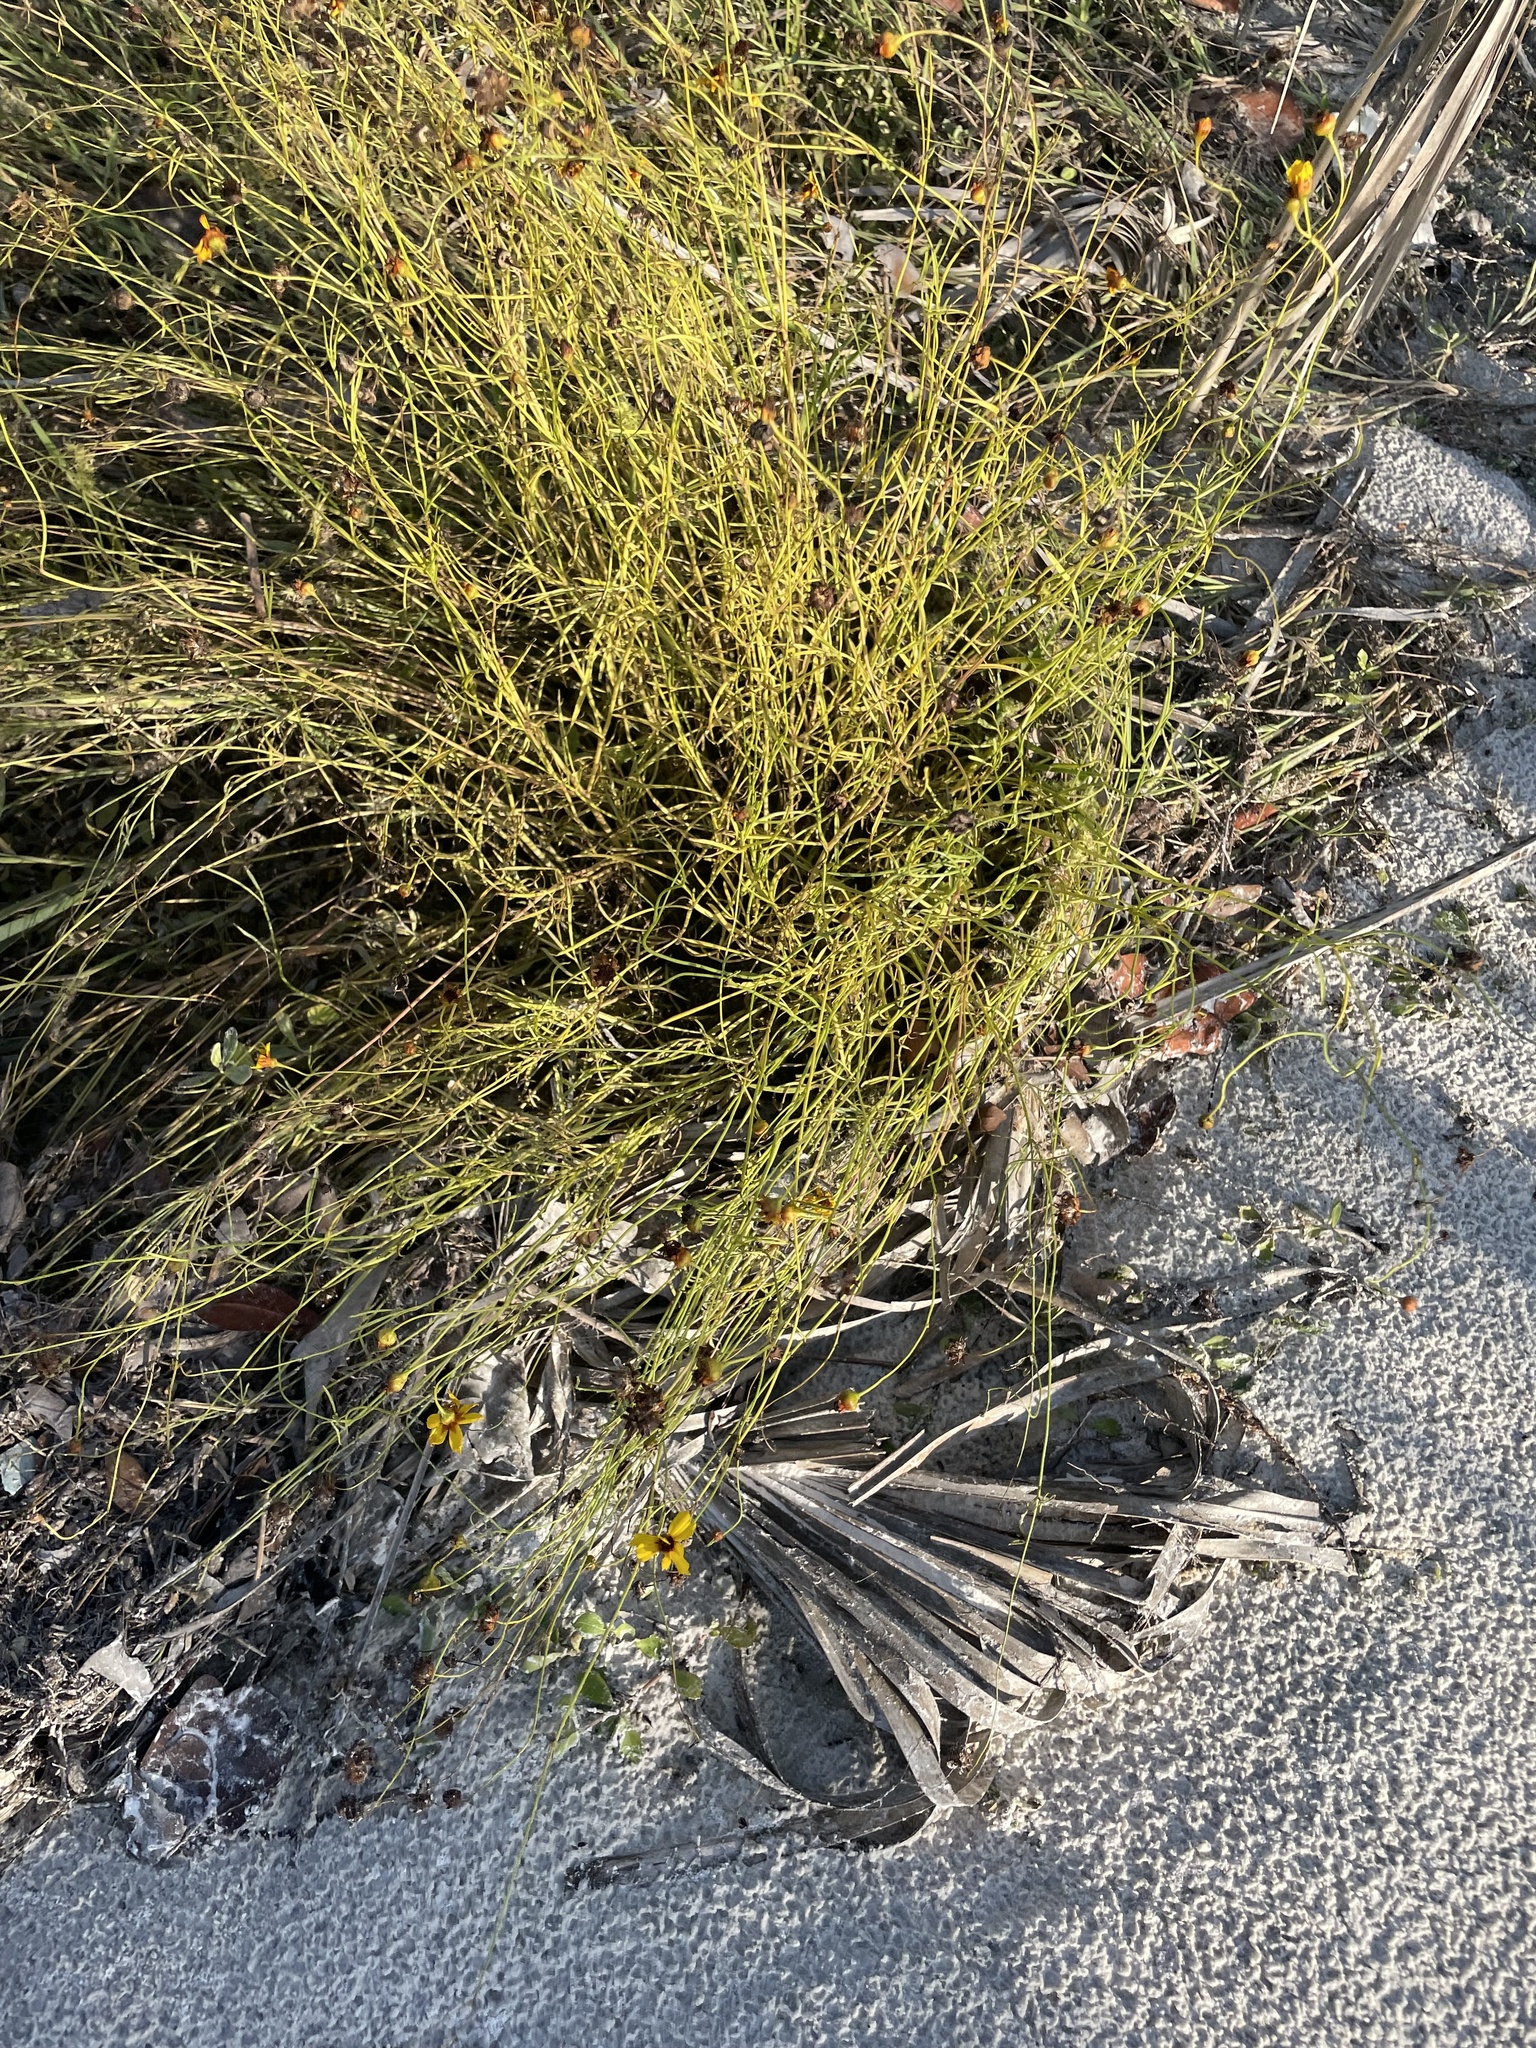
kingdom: Plantae
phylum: Tracheophyta
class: Magnoliopsida
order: Asterales
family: Asteraceae
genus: Coreopsis
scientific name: Coreopsis leavenworthii
